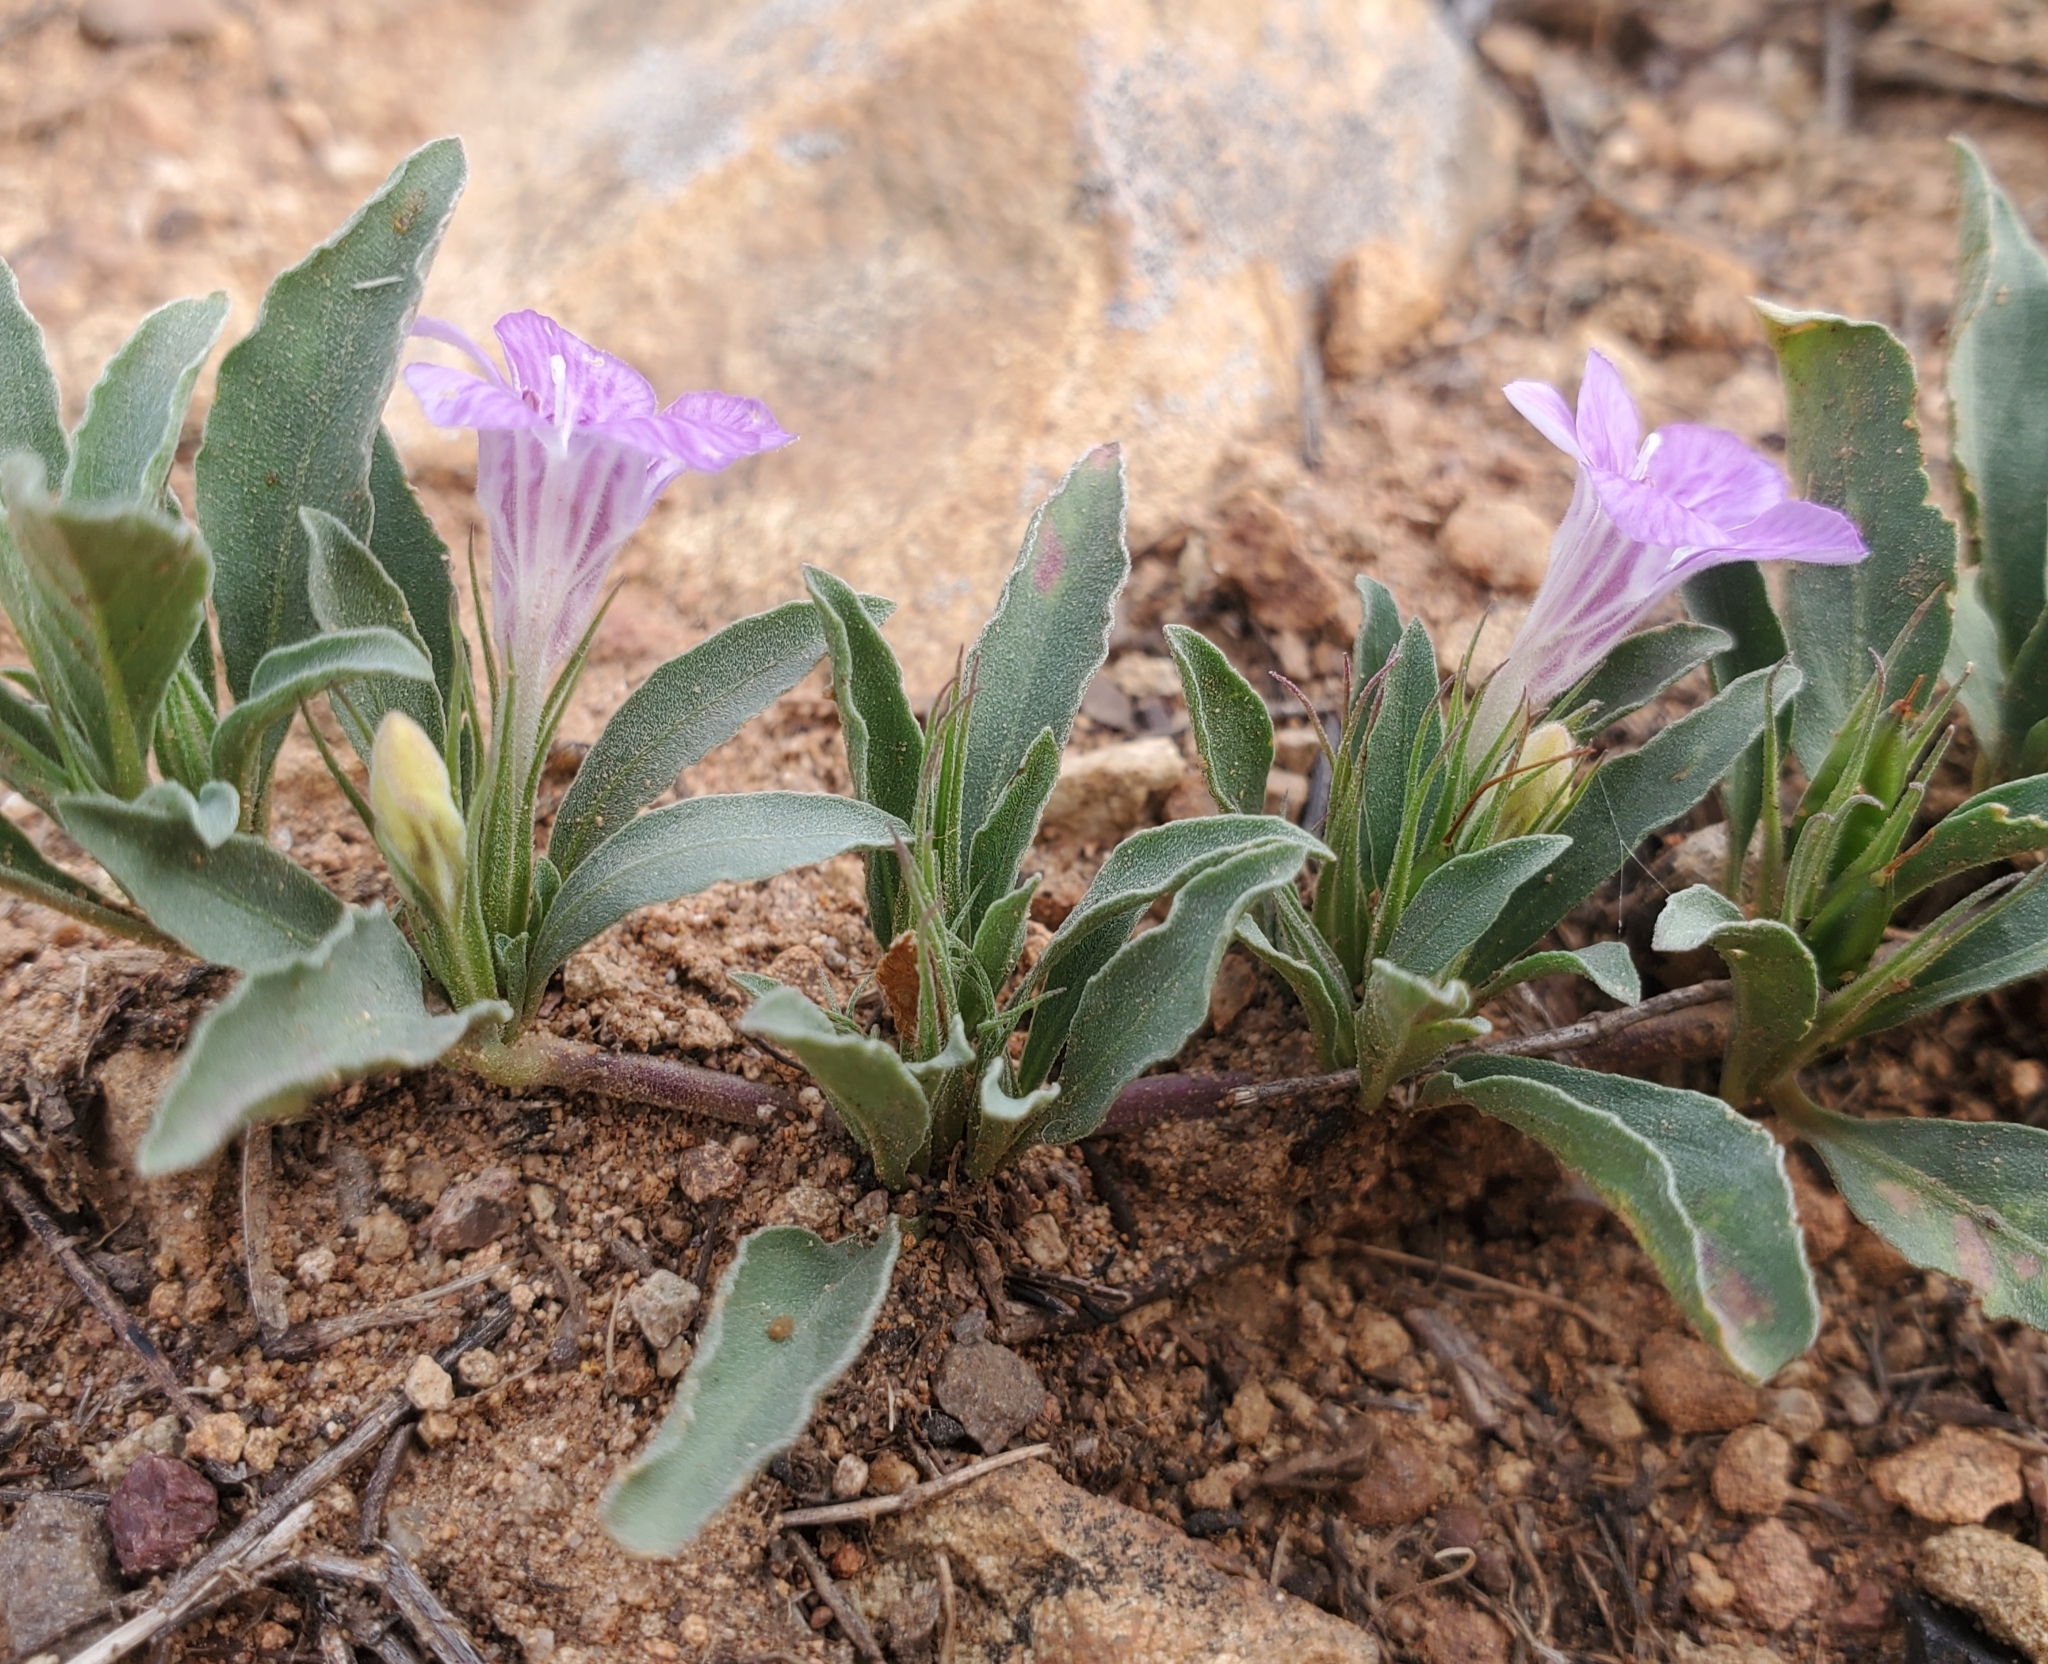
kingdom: Plantae
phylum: Tracheophyta
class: Magnoliopsida
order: Lamiales
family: Acanthaceae
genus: Dyschoriste
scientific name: Dyschoriste schiedeana
